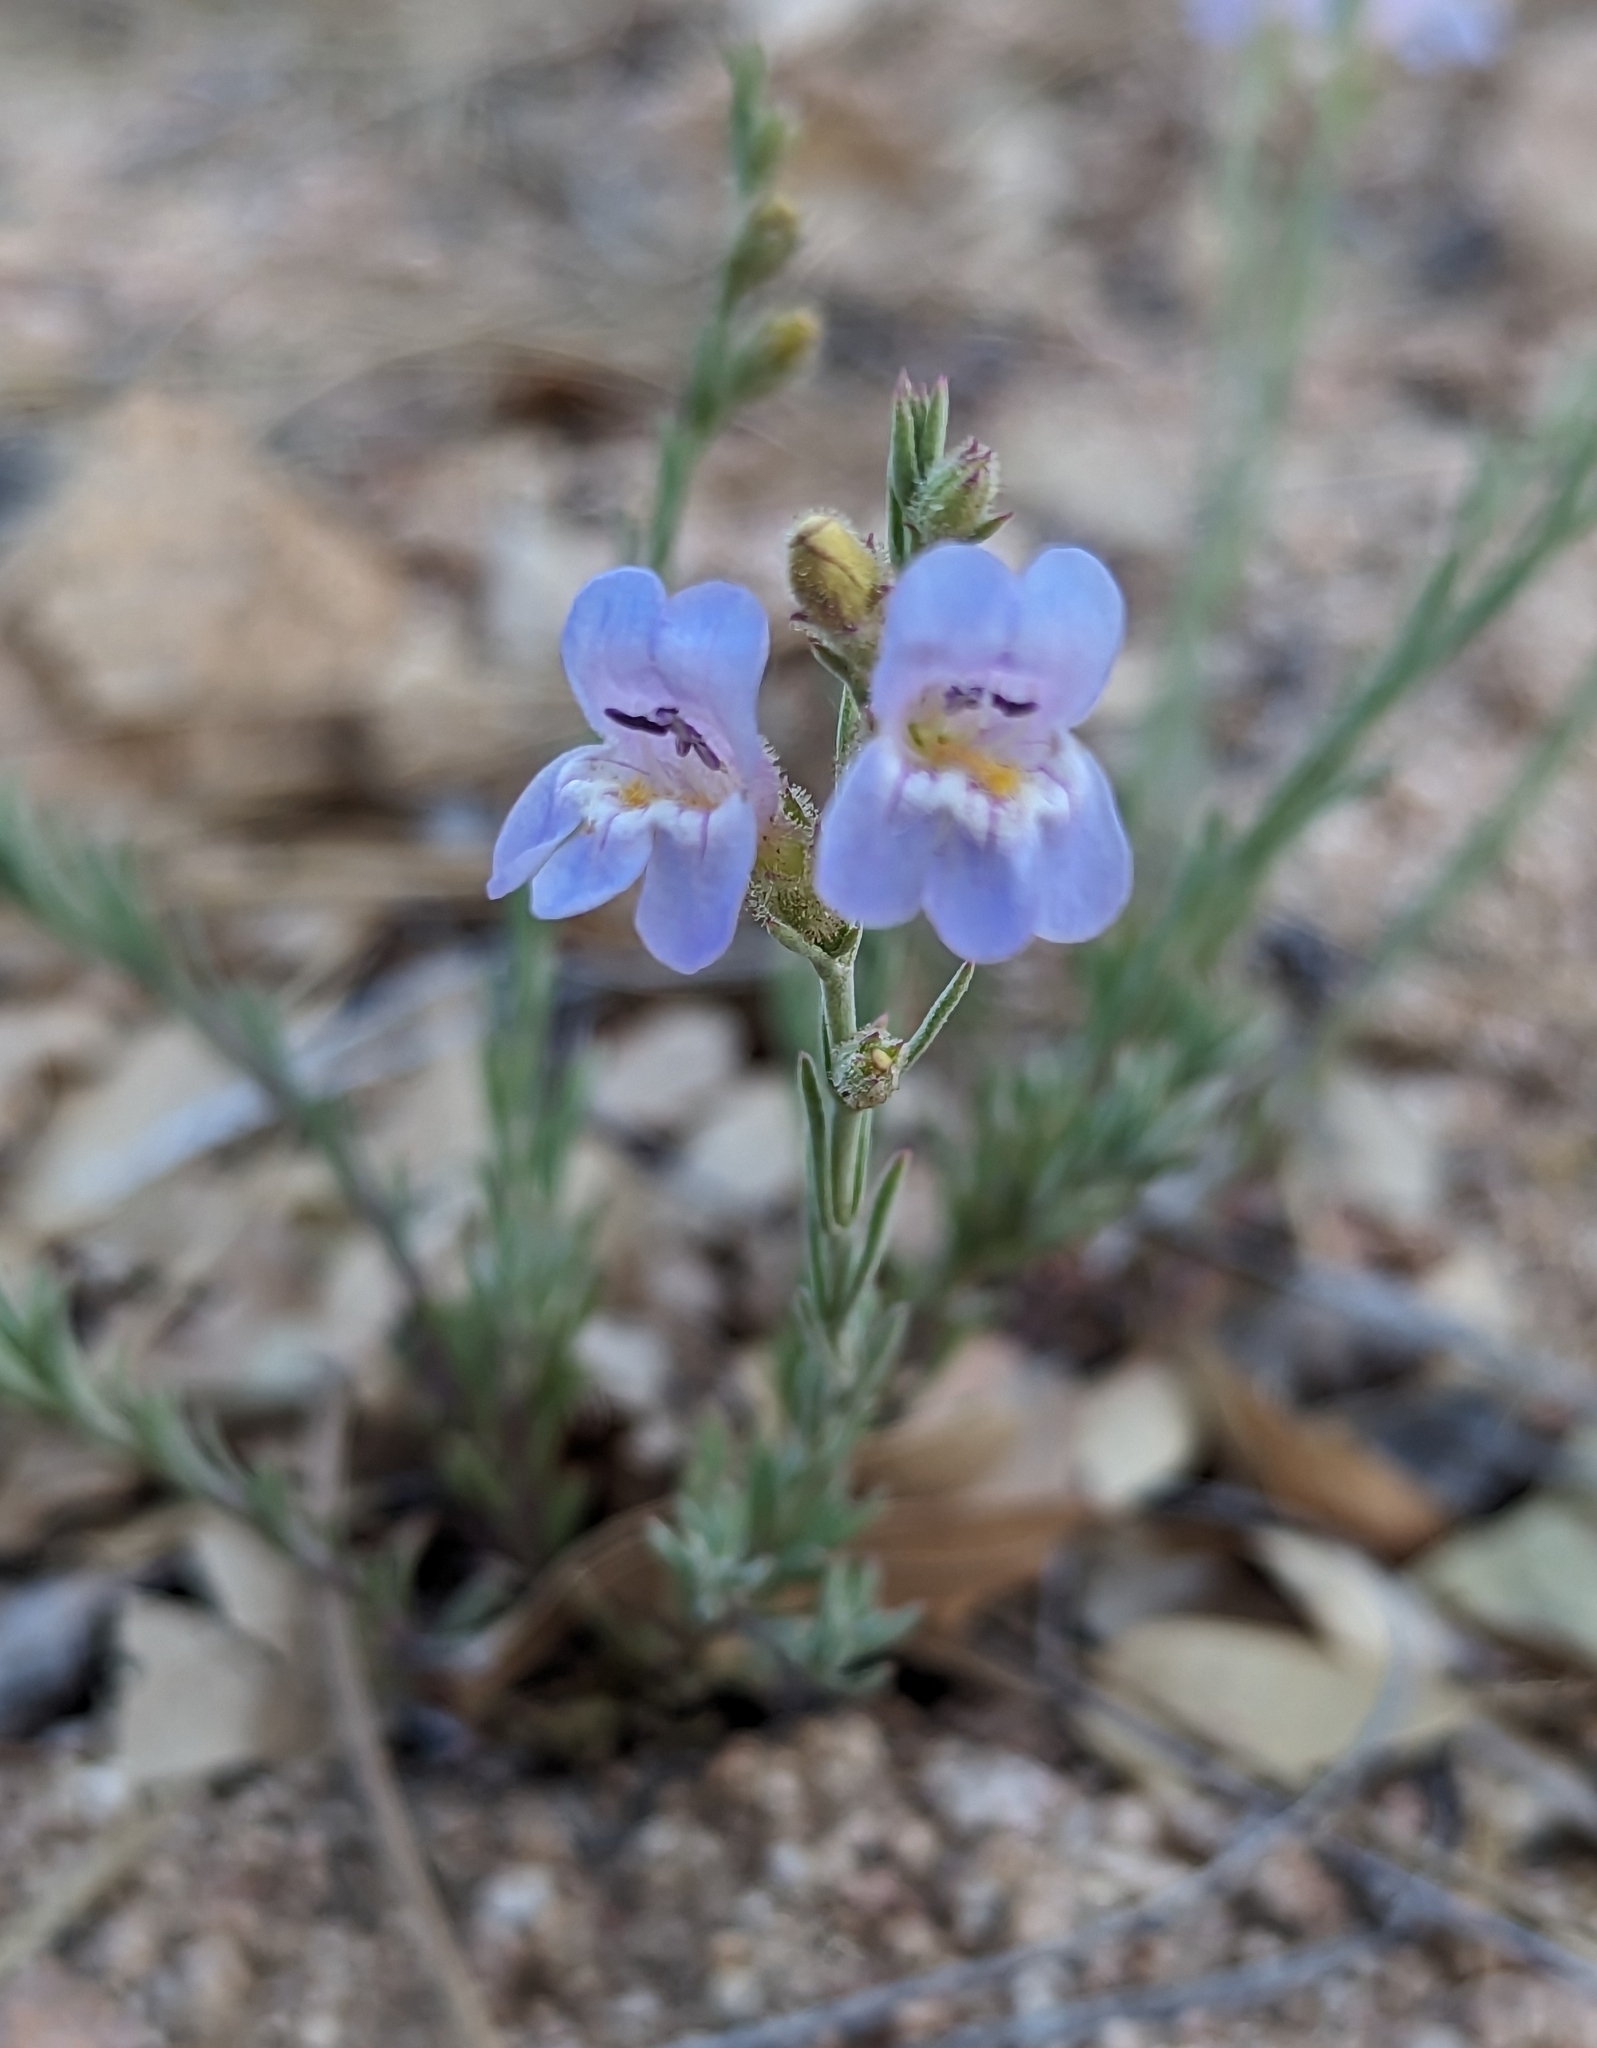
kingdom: Plantae
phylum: Tracheophyta
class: Magnoliopsida
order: Lamiales
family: Plantaginaceae
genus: Penstemon
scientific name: Penstemon linarioides
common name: Siler's penstemon
